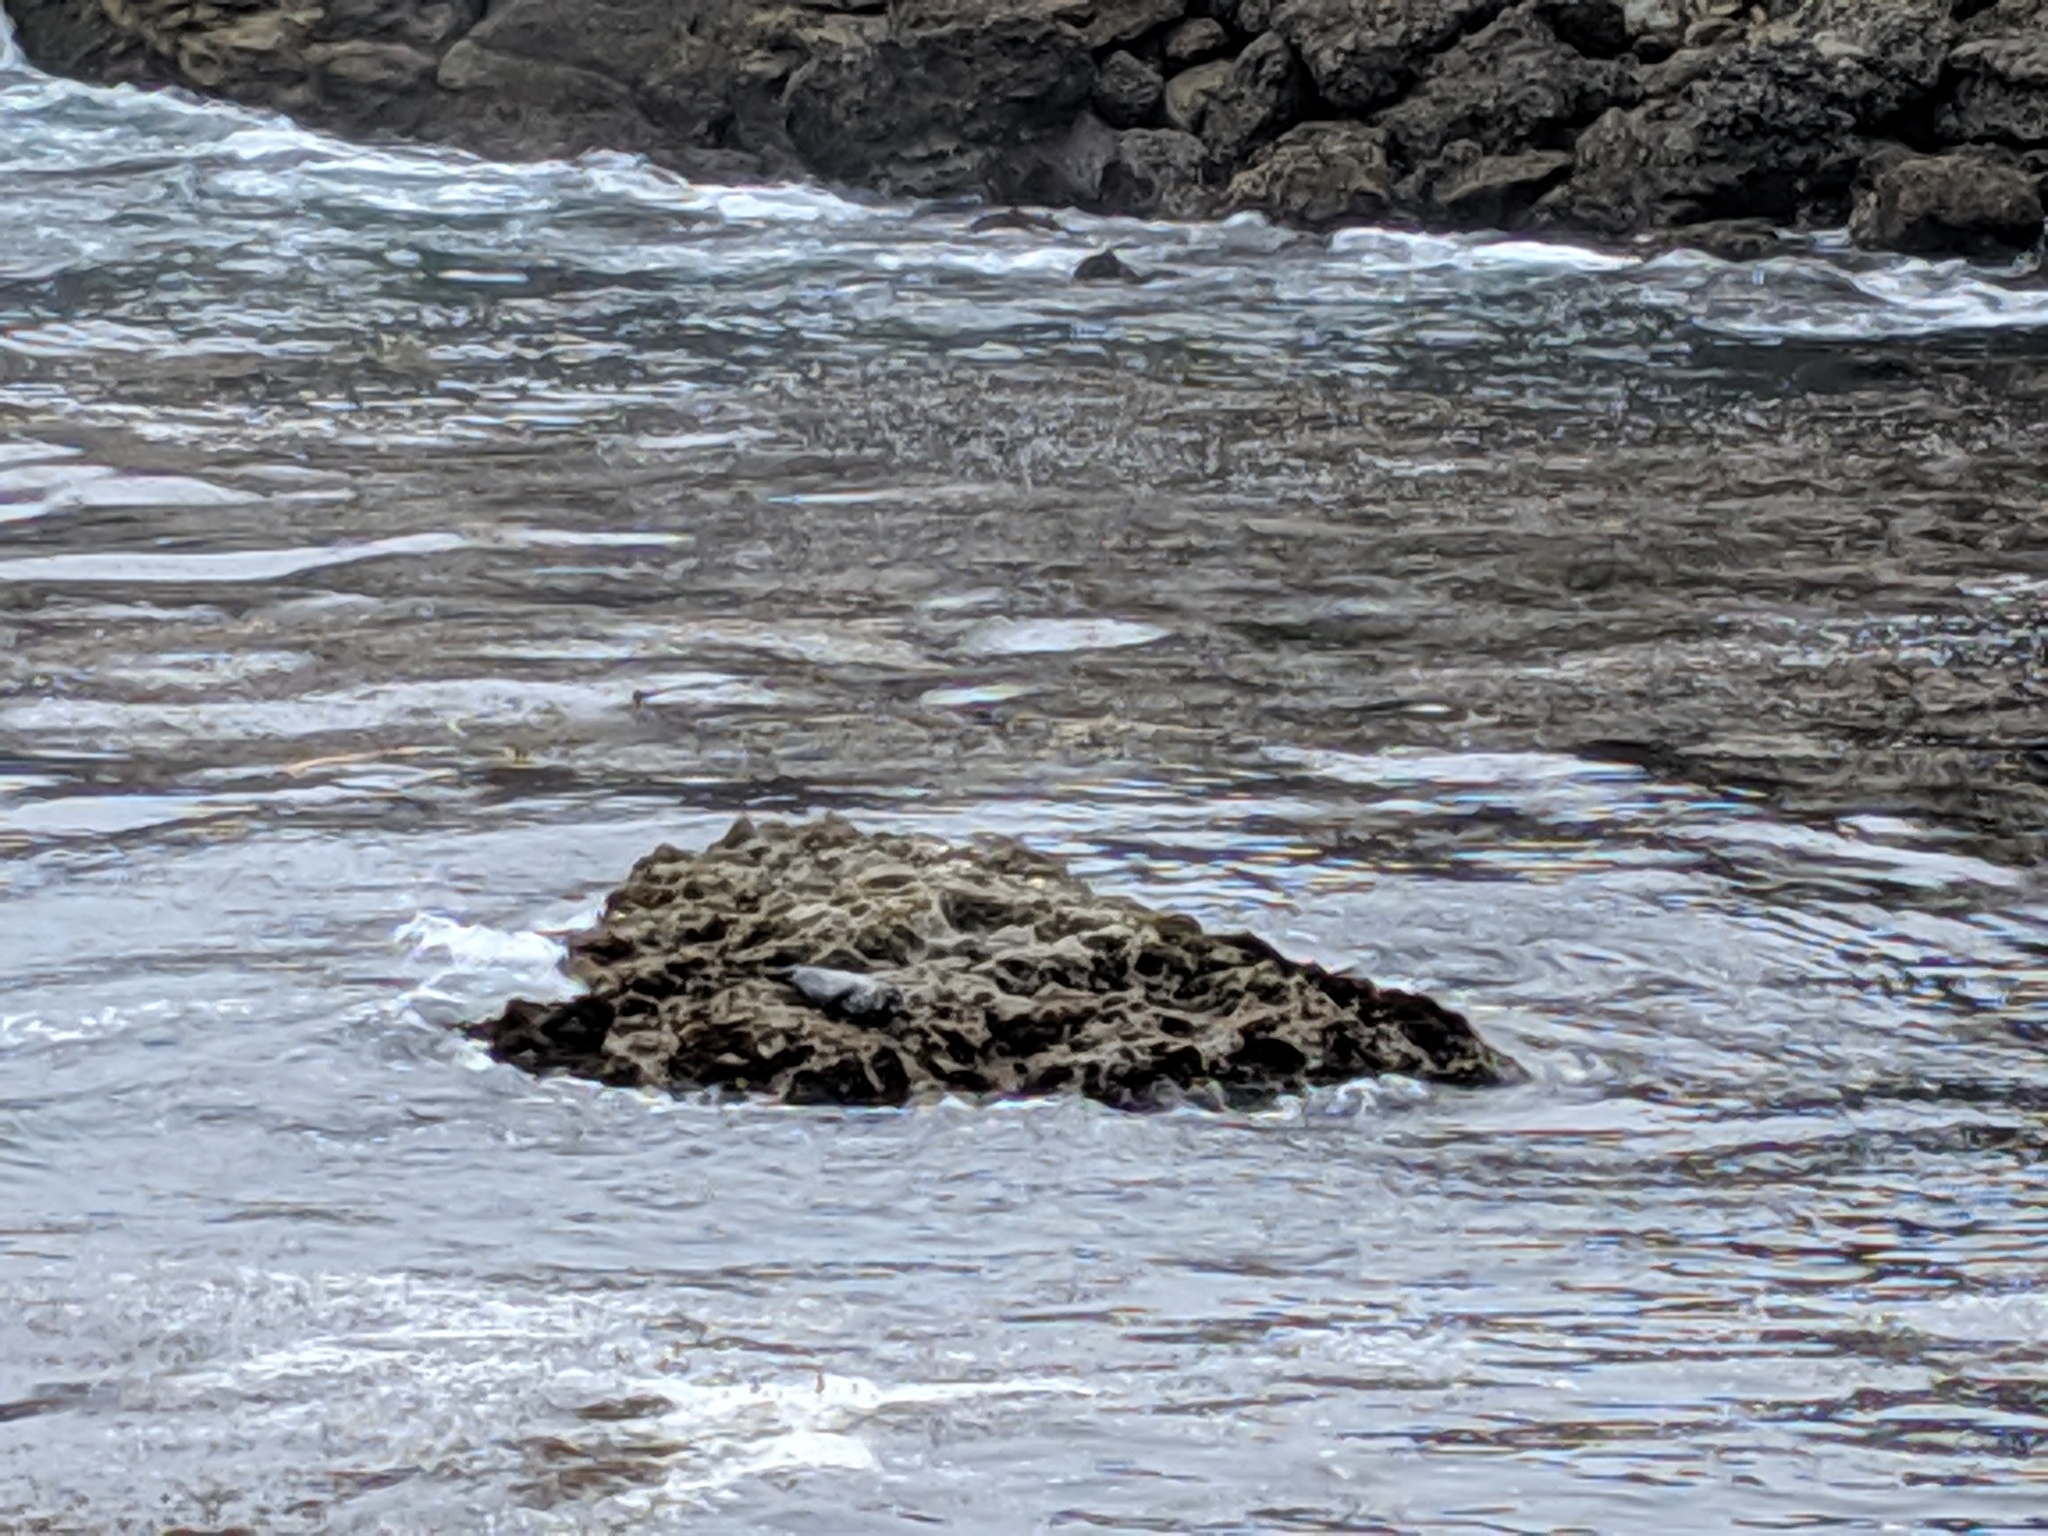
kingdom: Animalia
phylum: Chordata
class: Mammalia
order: Carnivora
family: Phocidae
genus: Phoca
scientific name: Phoca vitulina
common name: Harbor seal
